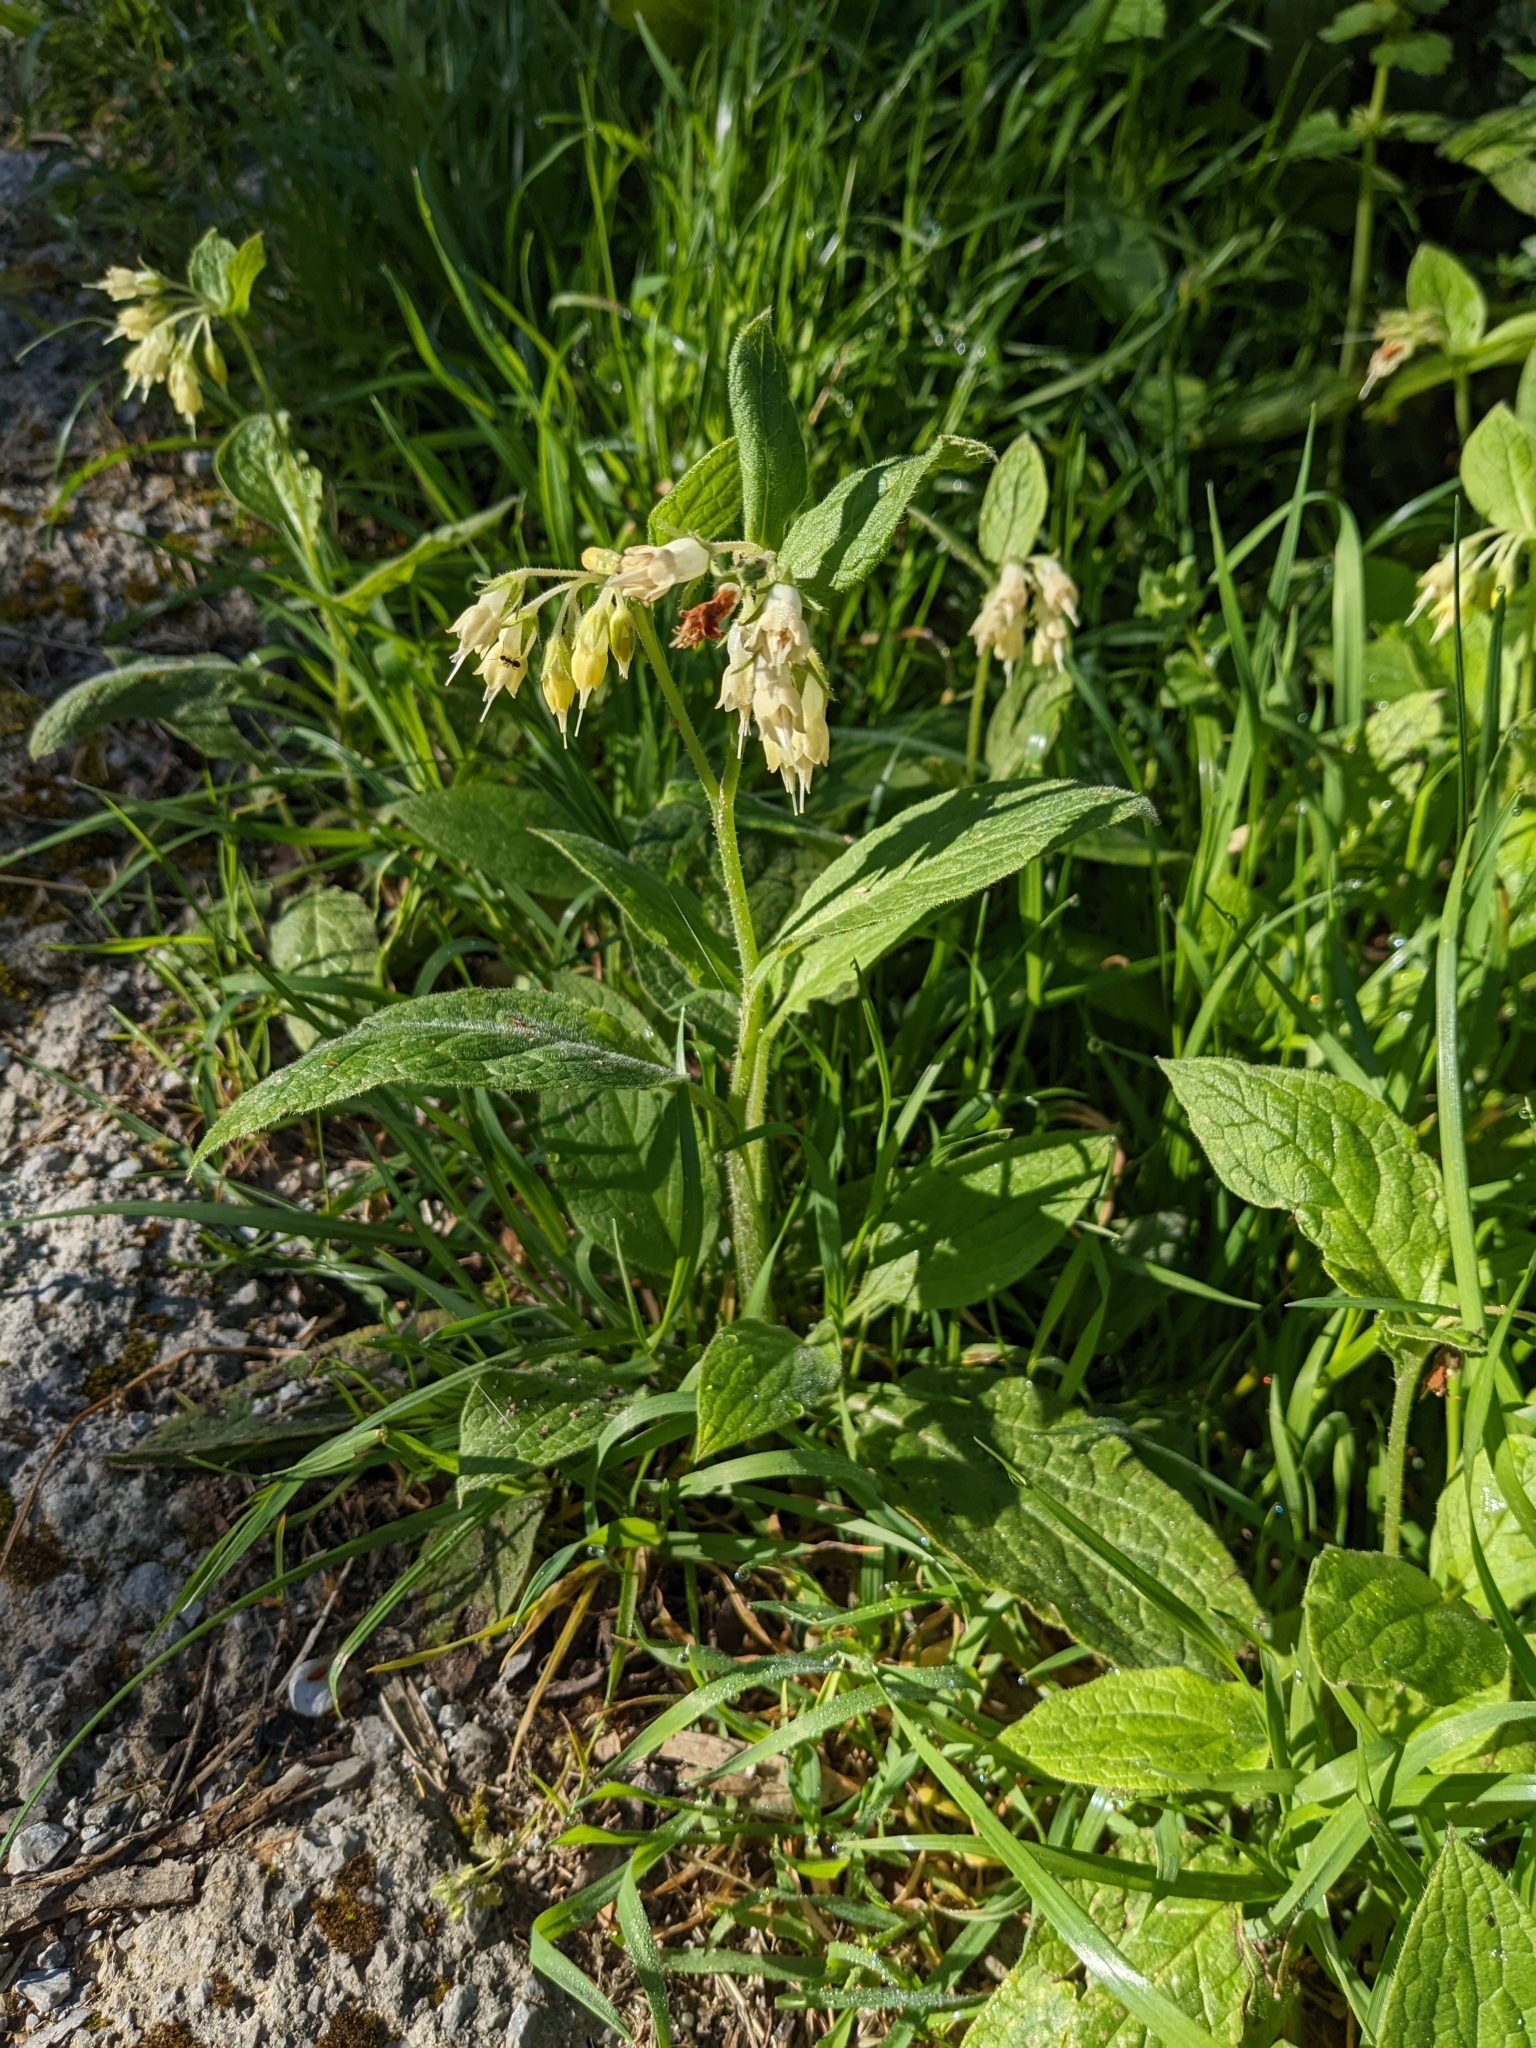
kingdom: Plantae
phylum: Tracheophyta
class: Magnoliopsida
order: Boraginales
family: Boraginaceae
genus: Symphytum
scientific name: Symphytum bulbosum
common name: Bulbous comfrey
